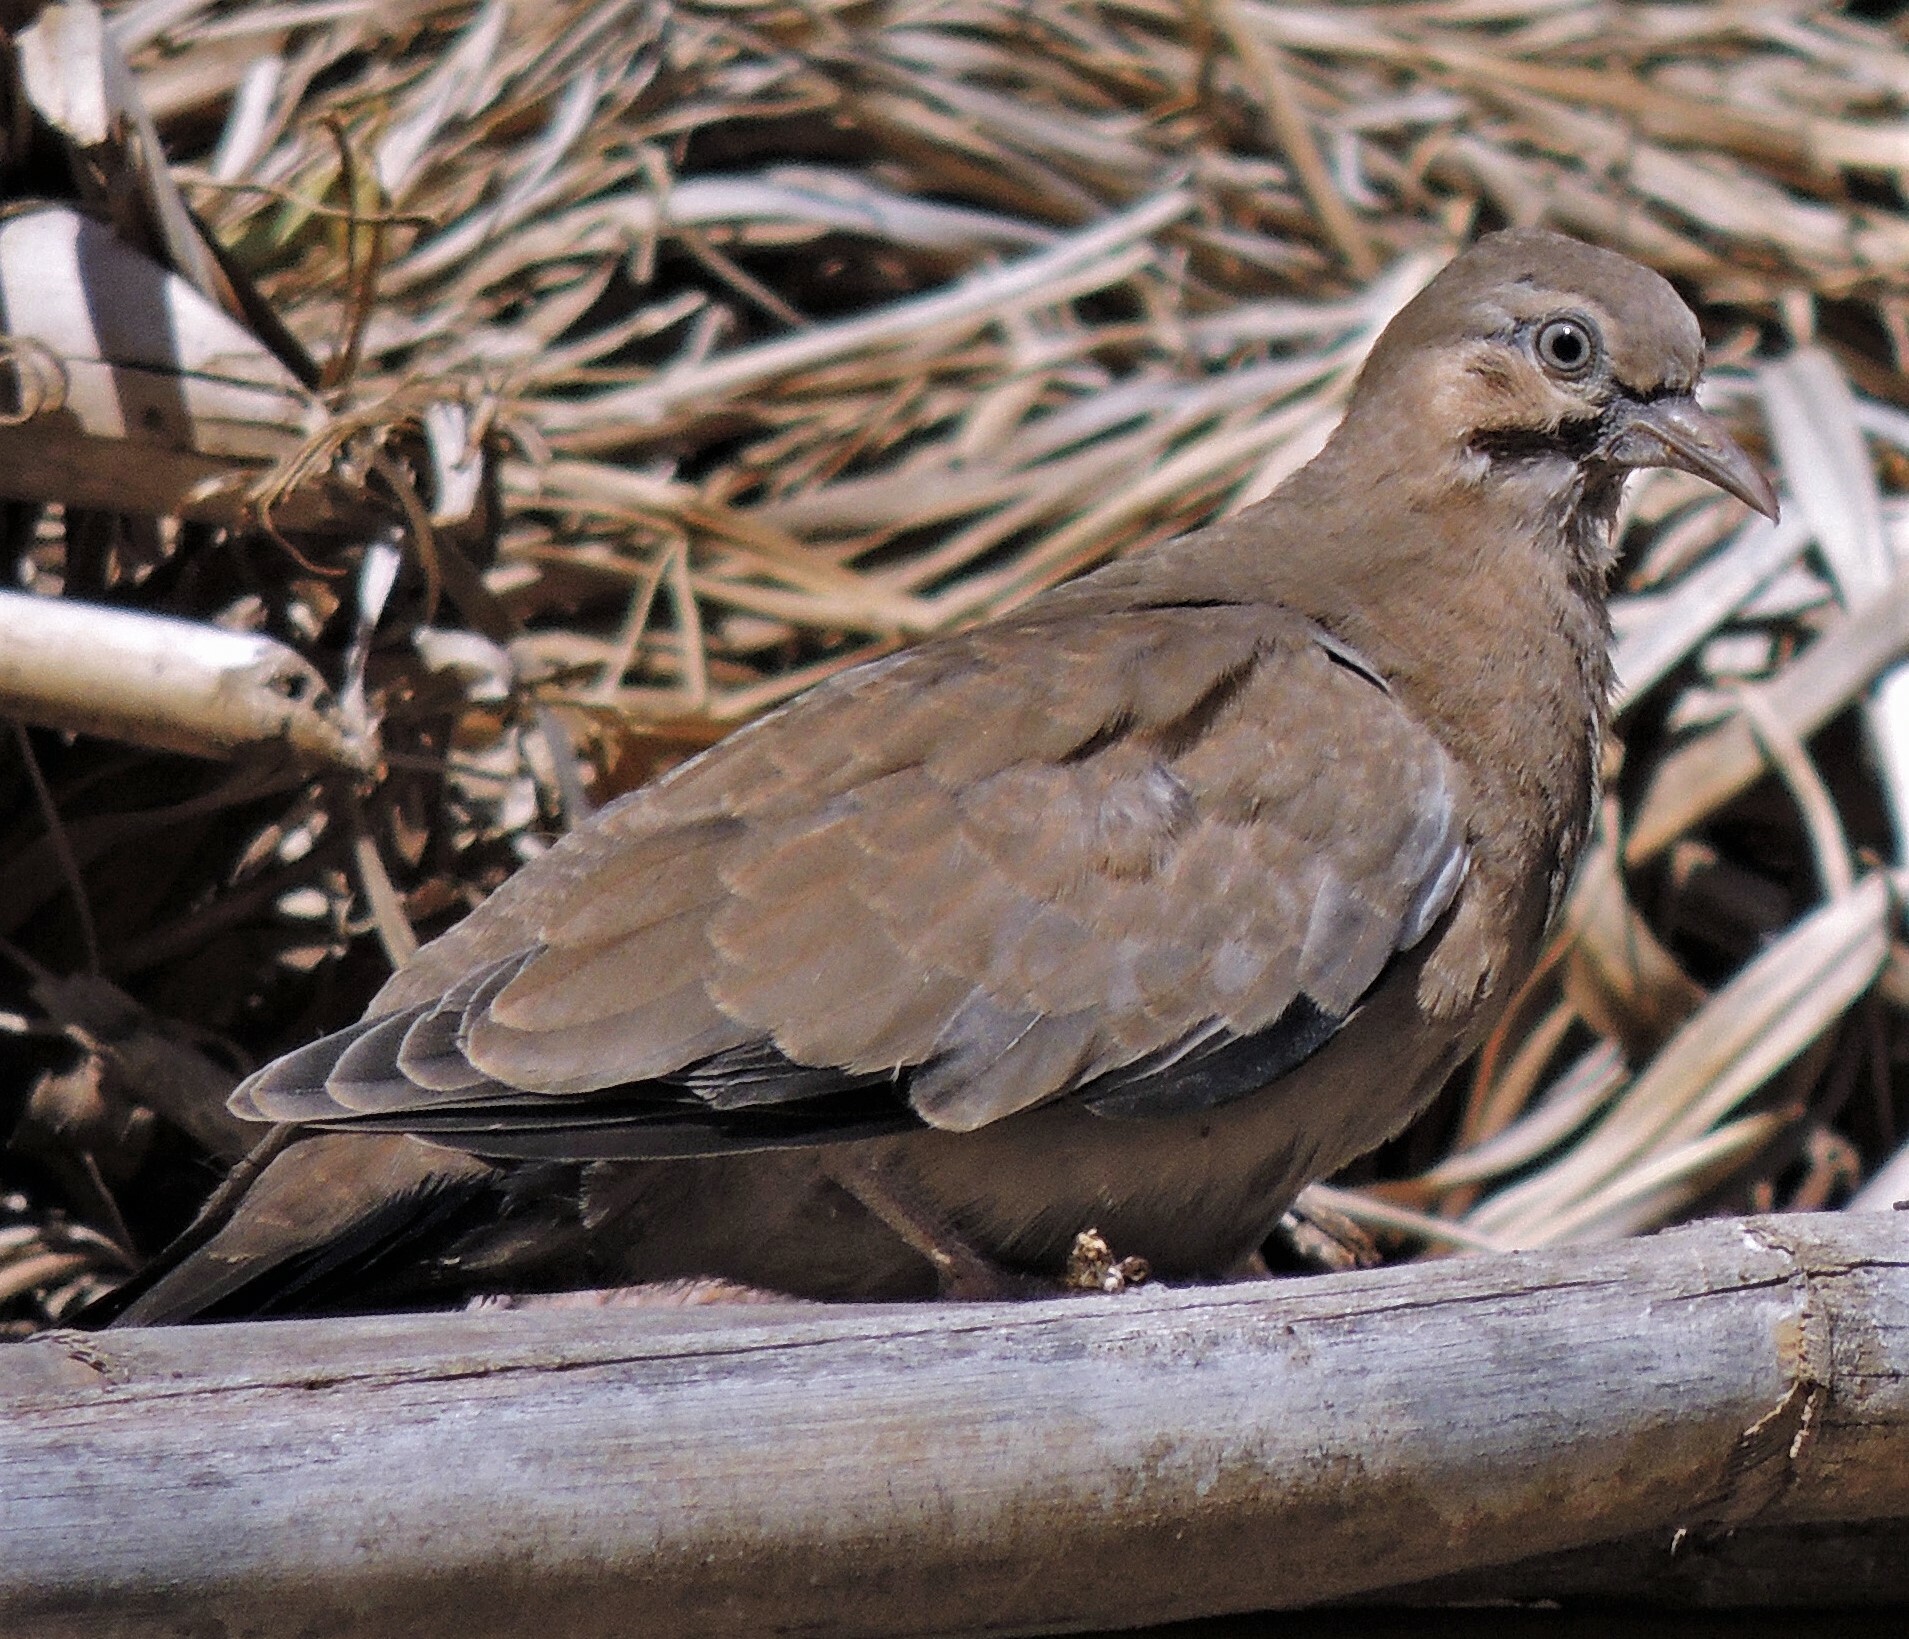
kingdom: Animalia
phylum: Chordata
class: Aves
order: Columbiformes
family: Columbidae
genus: Metriopelia
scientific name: Metriopelia melanoptera
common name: Black-winged ground dove
